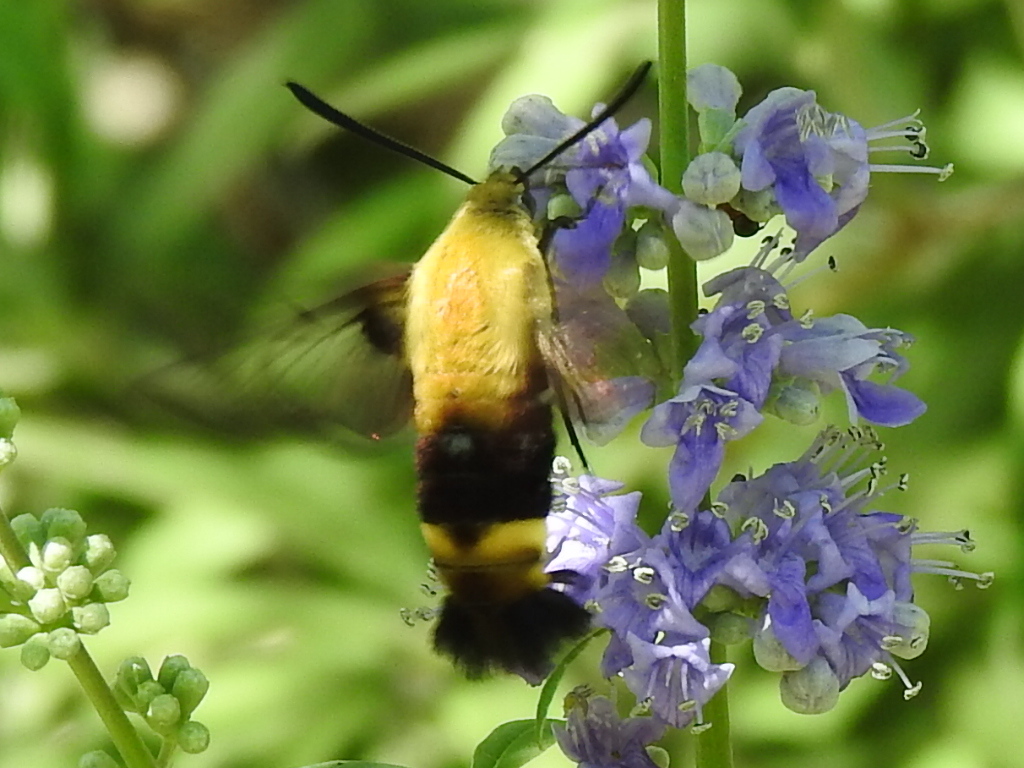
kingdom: Animalia
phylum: Arthropoda
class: Insecta
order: Lepidoptera
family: Sphingidae
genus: Hemaris
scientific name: Hemaris diffinis
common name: Bumblebee moth
